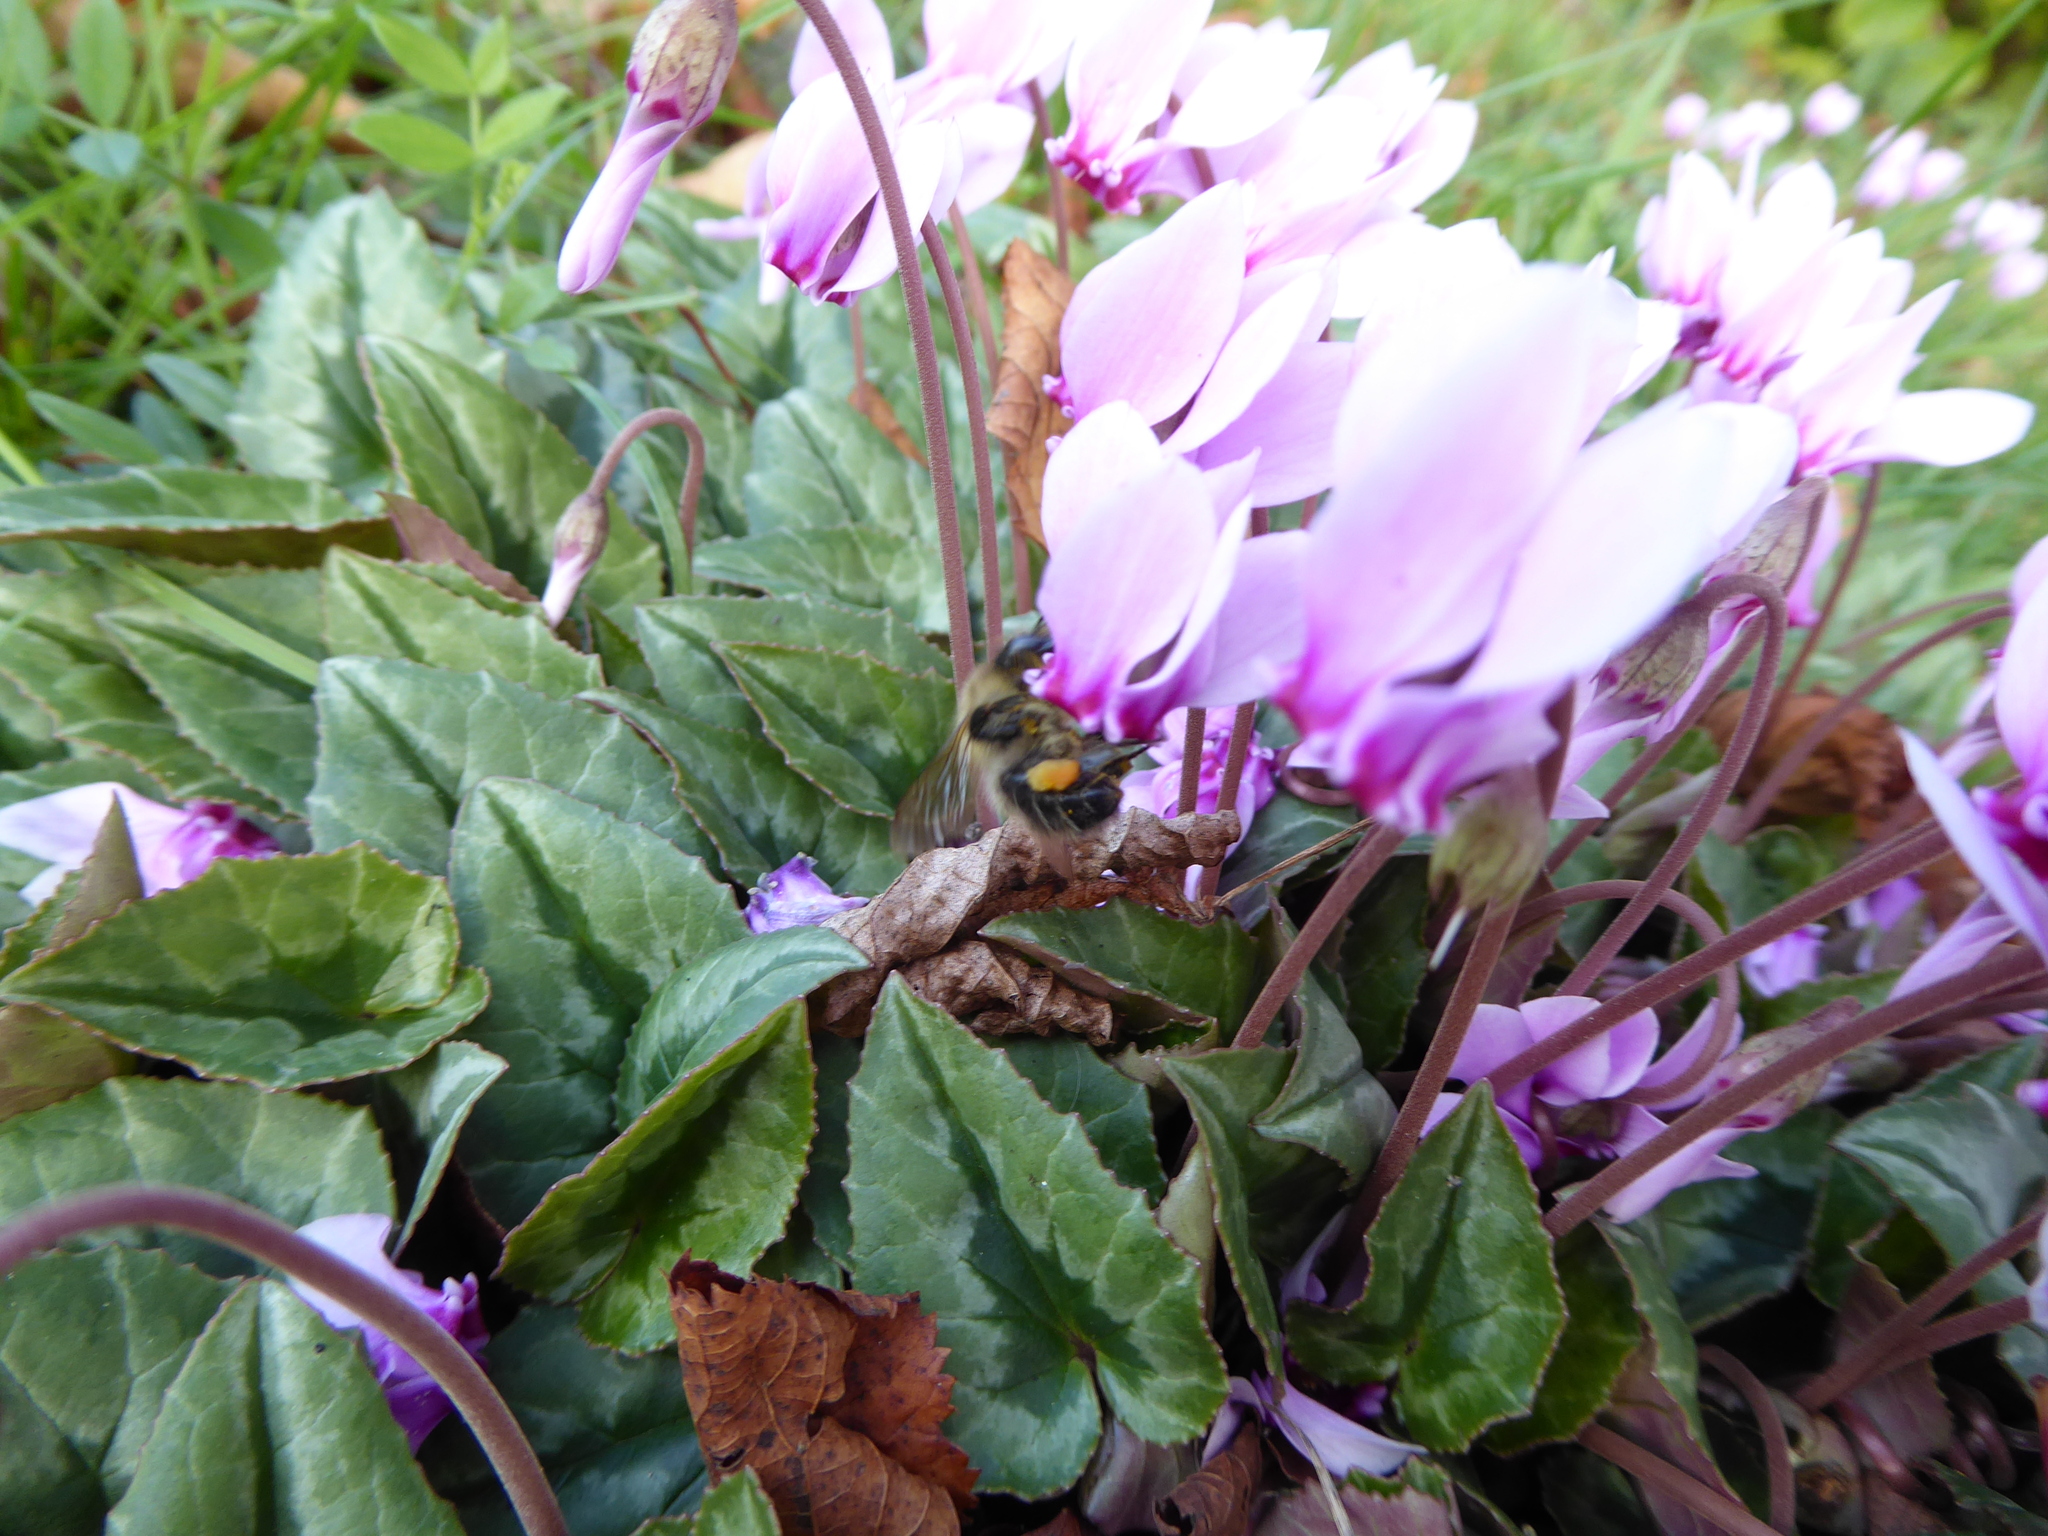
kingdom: Plantae
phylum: Tracheophyta
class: Magnoliopsida
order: Ericales
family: Primulaceae
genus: Cyclamen
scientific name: Cyclamen hederifolium
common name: Sowbread
